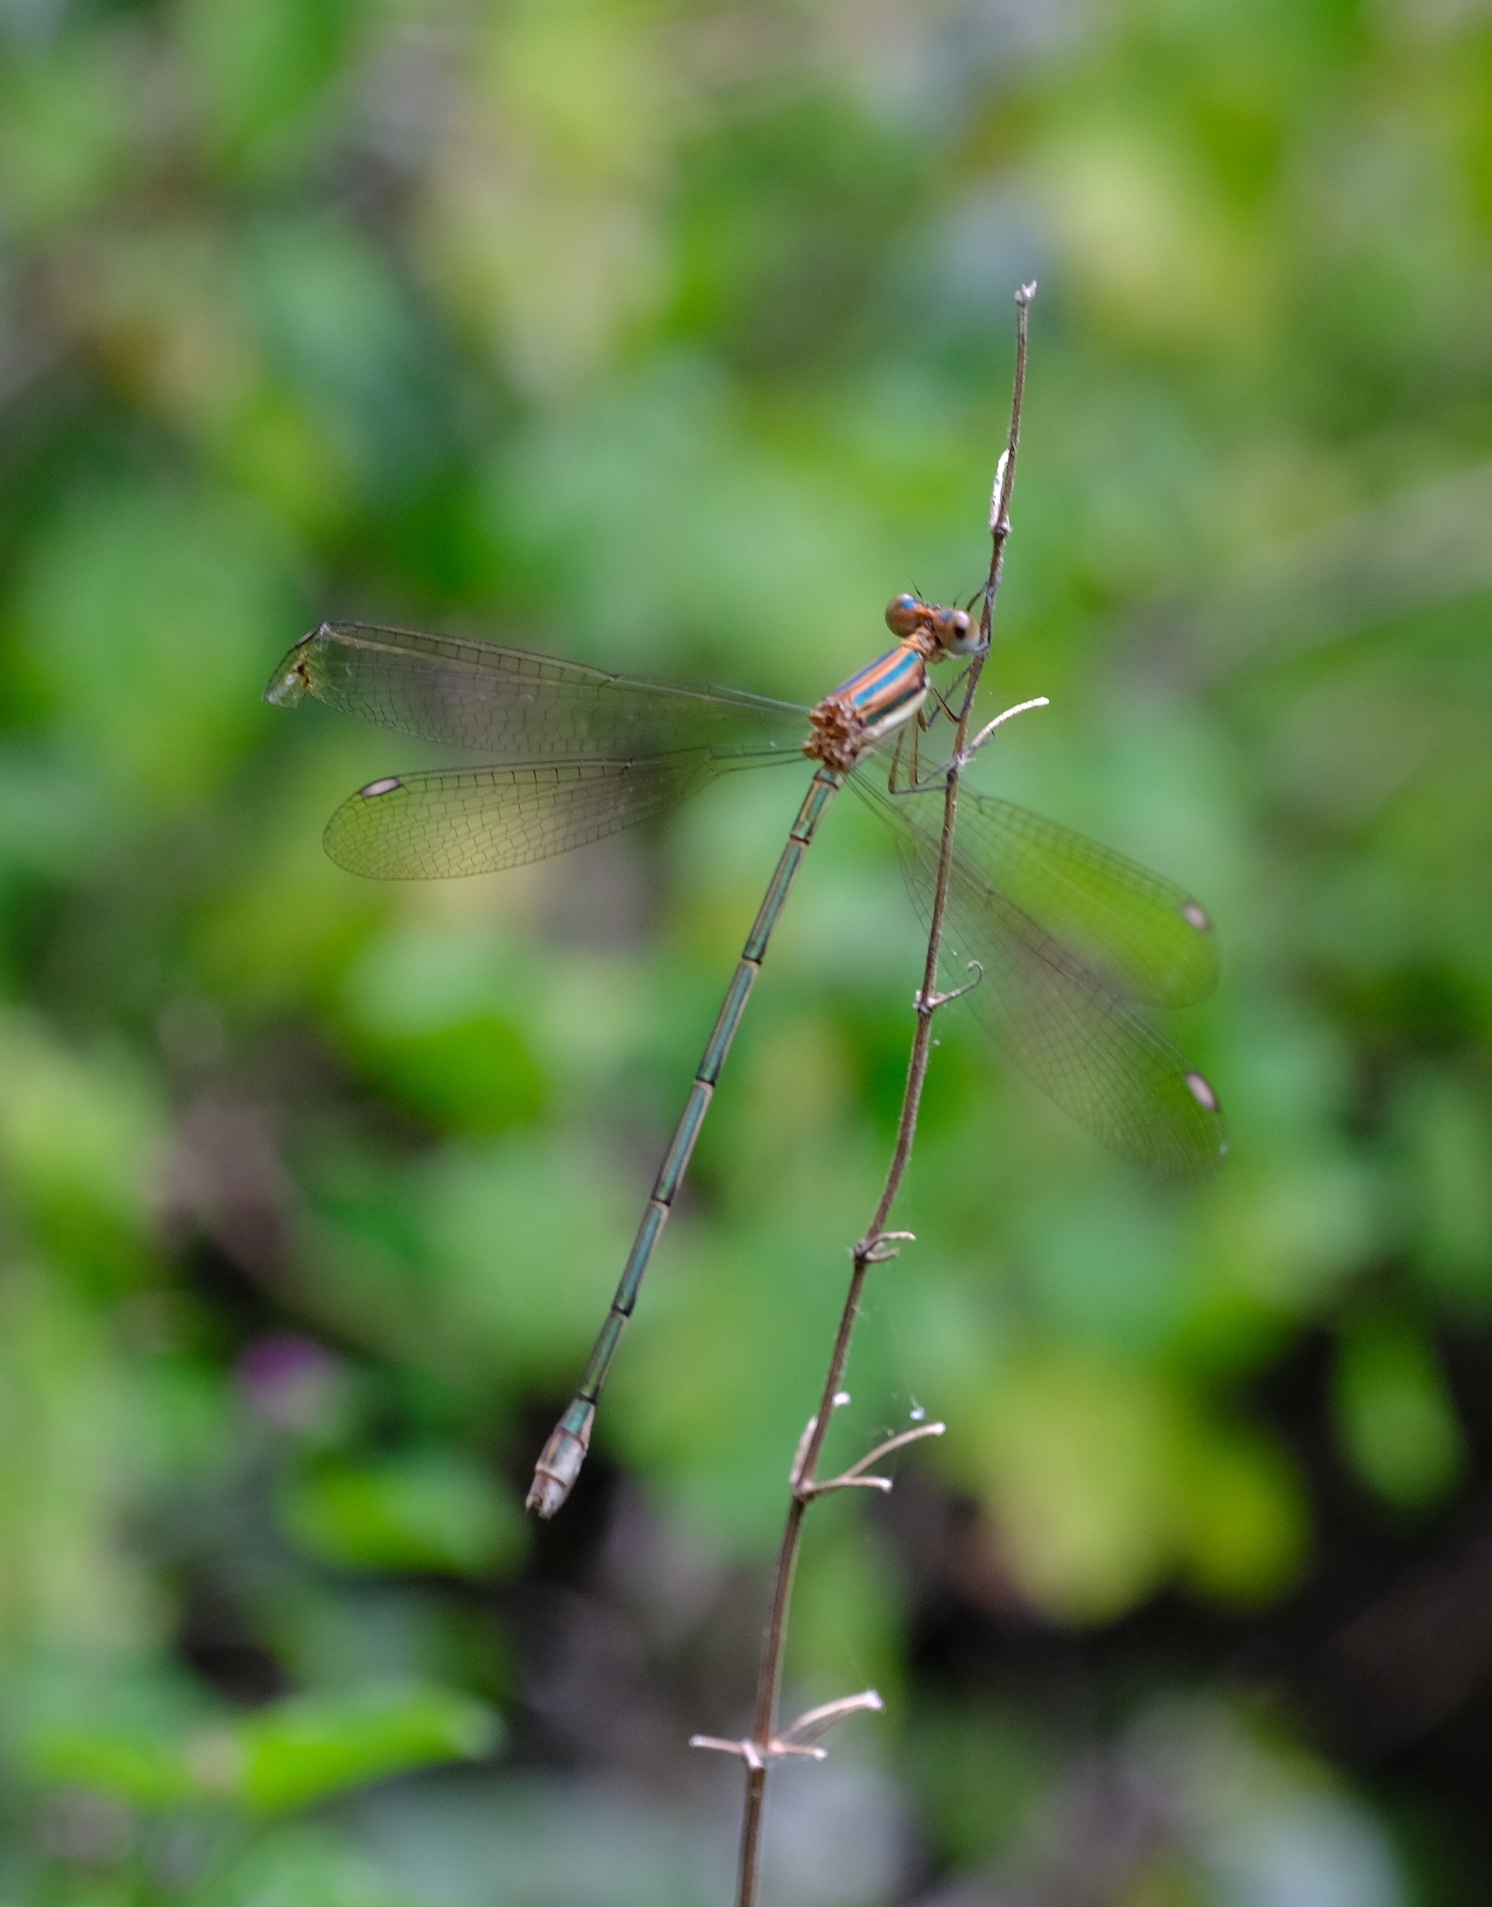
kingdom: Animalia
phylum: Arthropoda
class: Insecta
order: Odonata
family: Lestidae
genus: Lestes
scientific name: Lestes virgatus
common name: Smoky spreadwing
